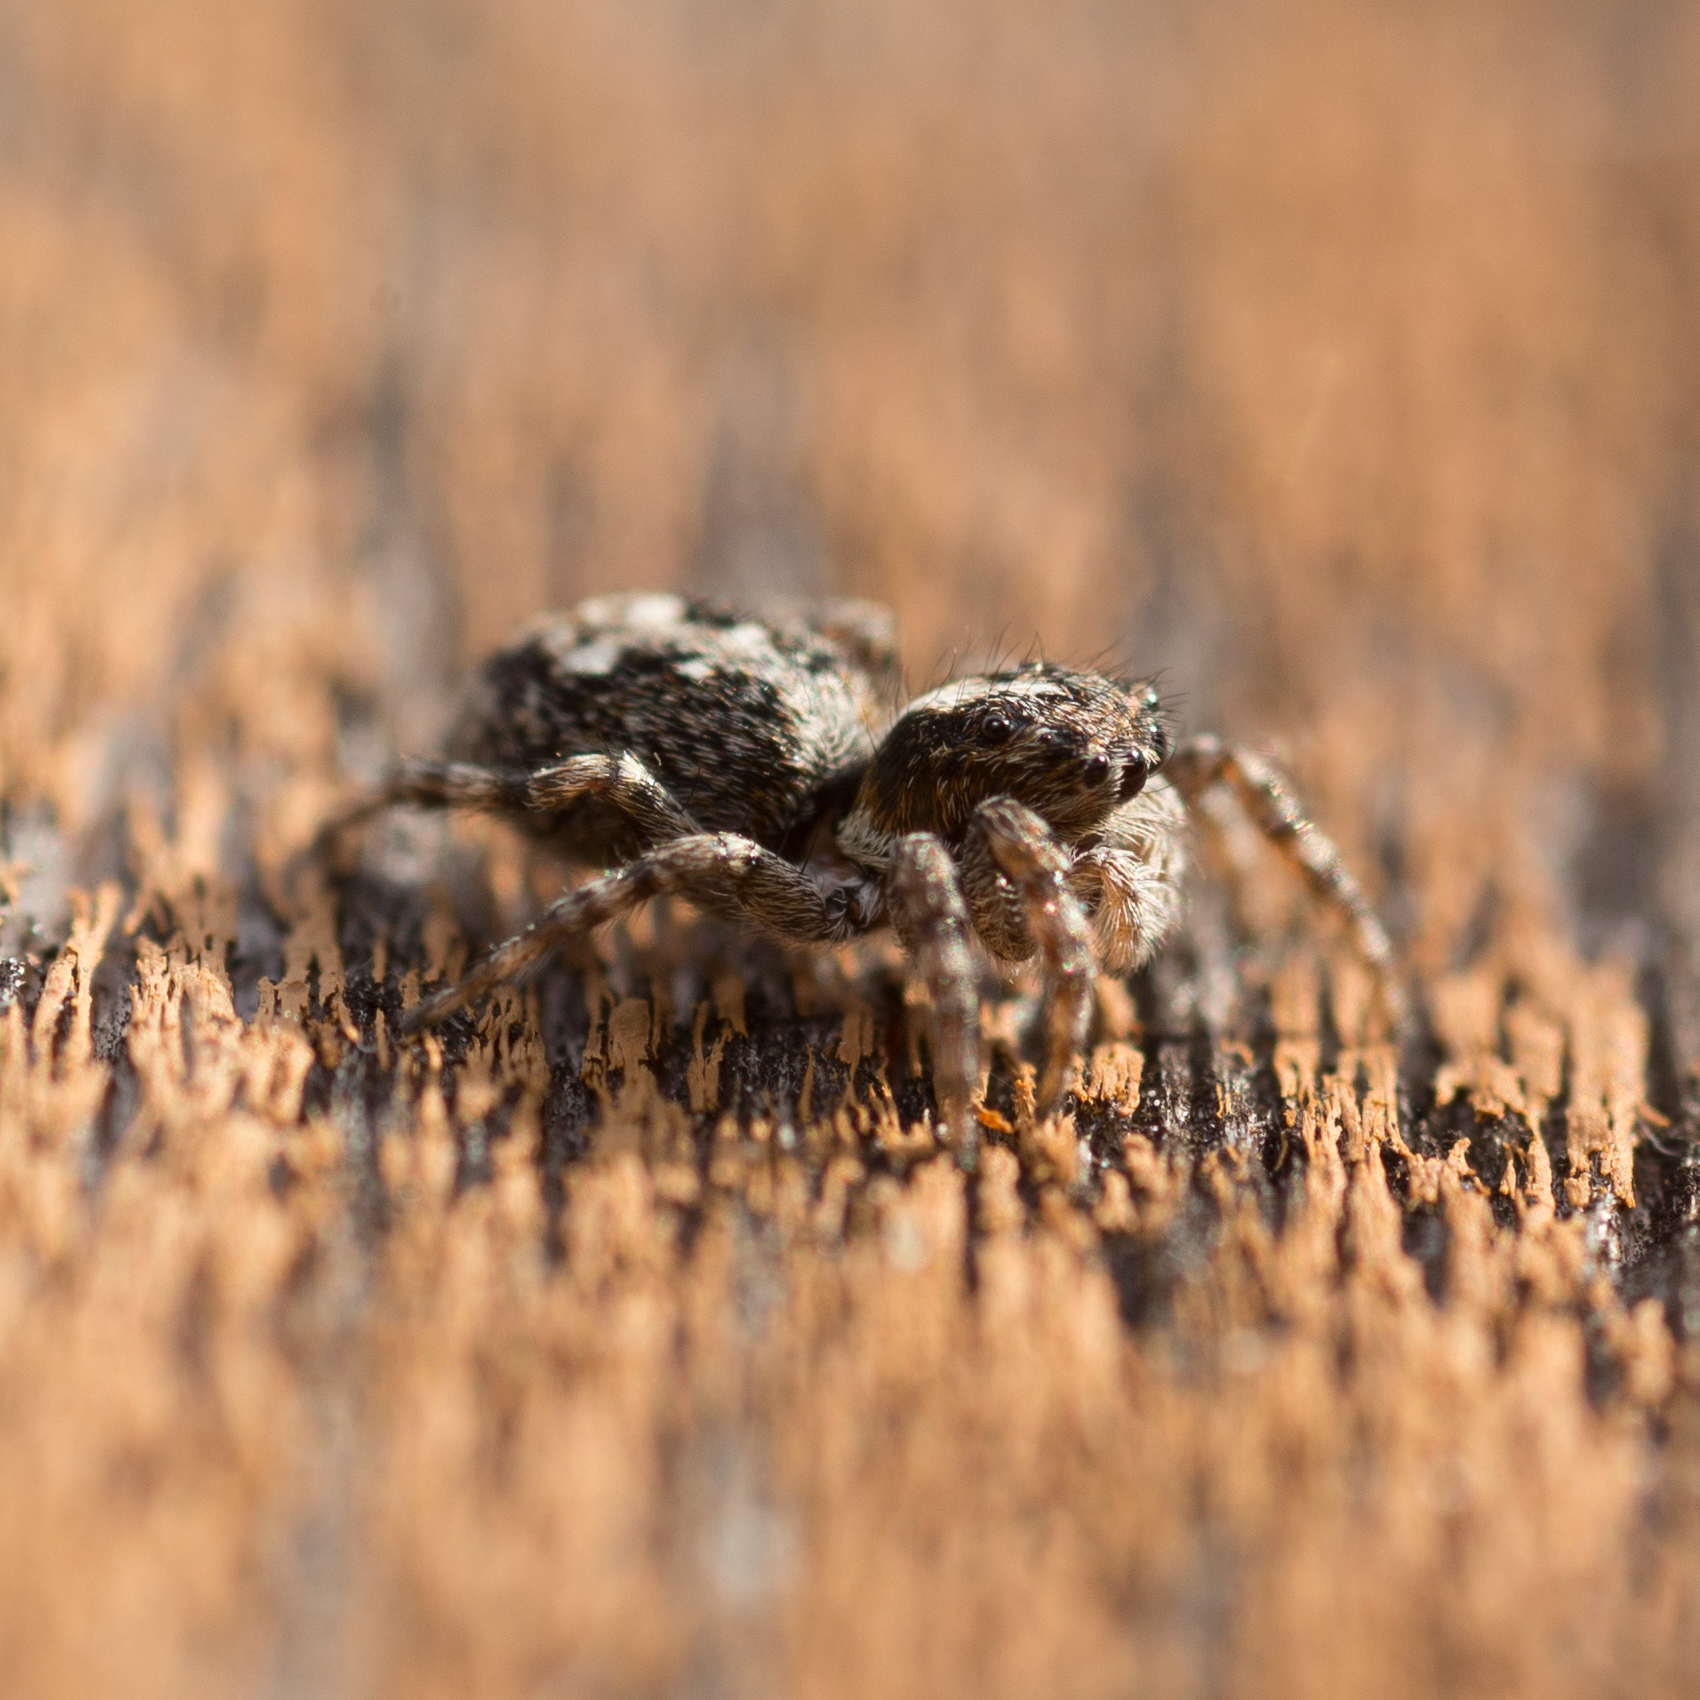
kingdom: Animalia
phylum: Arthropoda
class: Arachnida
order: Araneae
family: Salticidae
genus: Attulus
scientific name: Attulus terebratus
